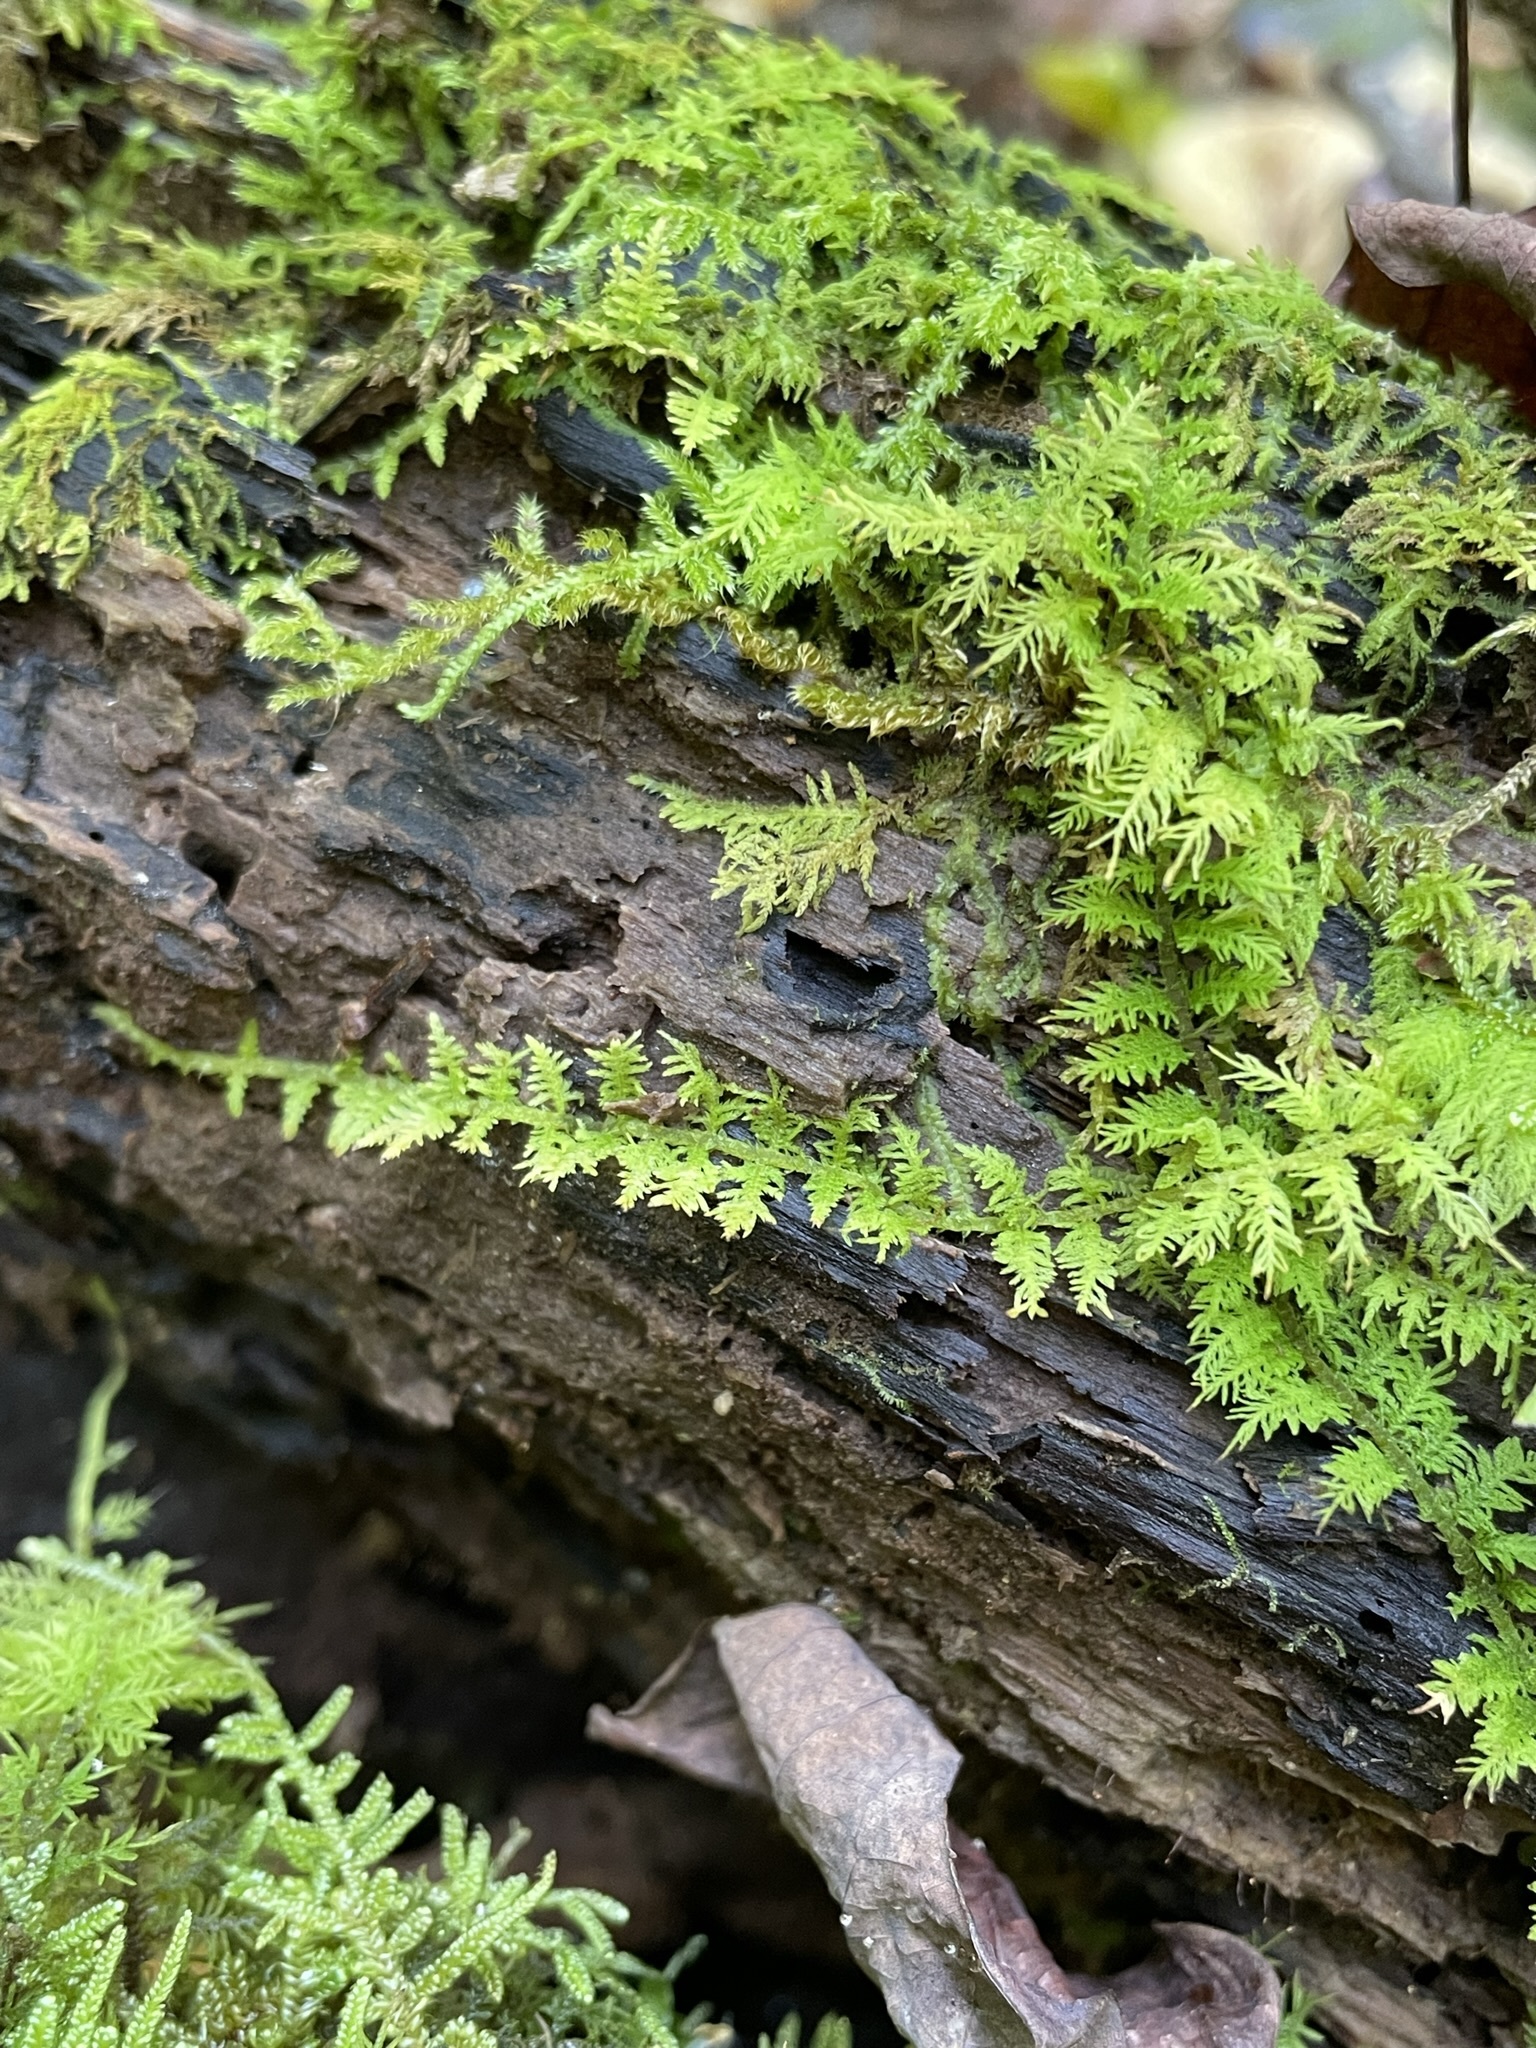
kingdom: Plantae
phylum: Bryophyta
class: Bryopsida
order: Hypnales
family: Thuidiaceae
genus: Thuidium
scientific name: Thuidium delicatulum
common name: Delicate fern moss
